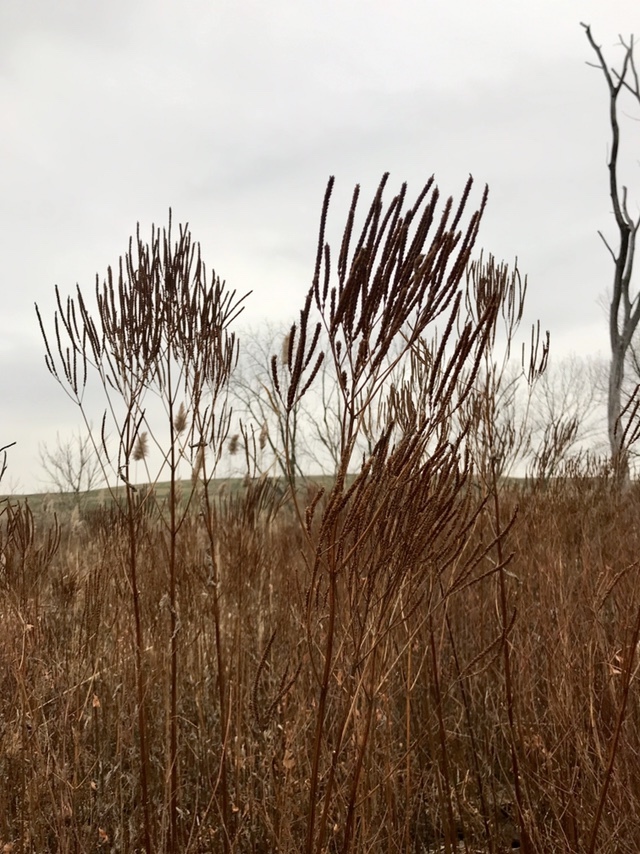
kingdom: Plantae
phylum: Tracheophyta
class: Magnoliopsida
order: Lamiales
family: Verbenaceae
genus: Verbena
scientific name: Verbena hastata
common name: American blue vervain
